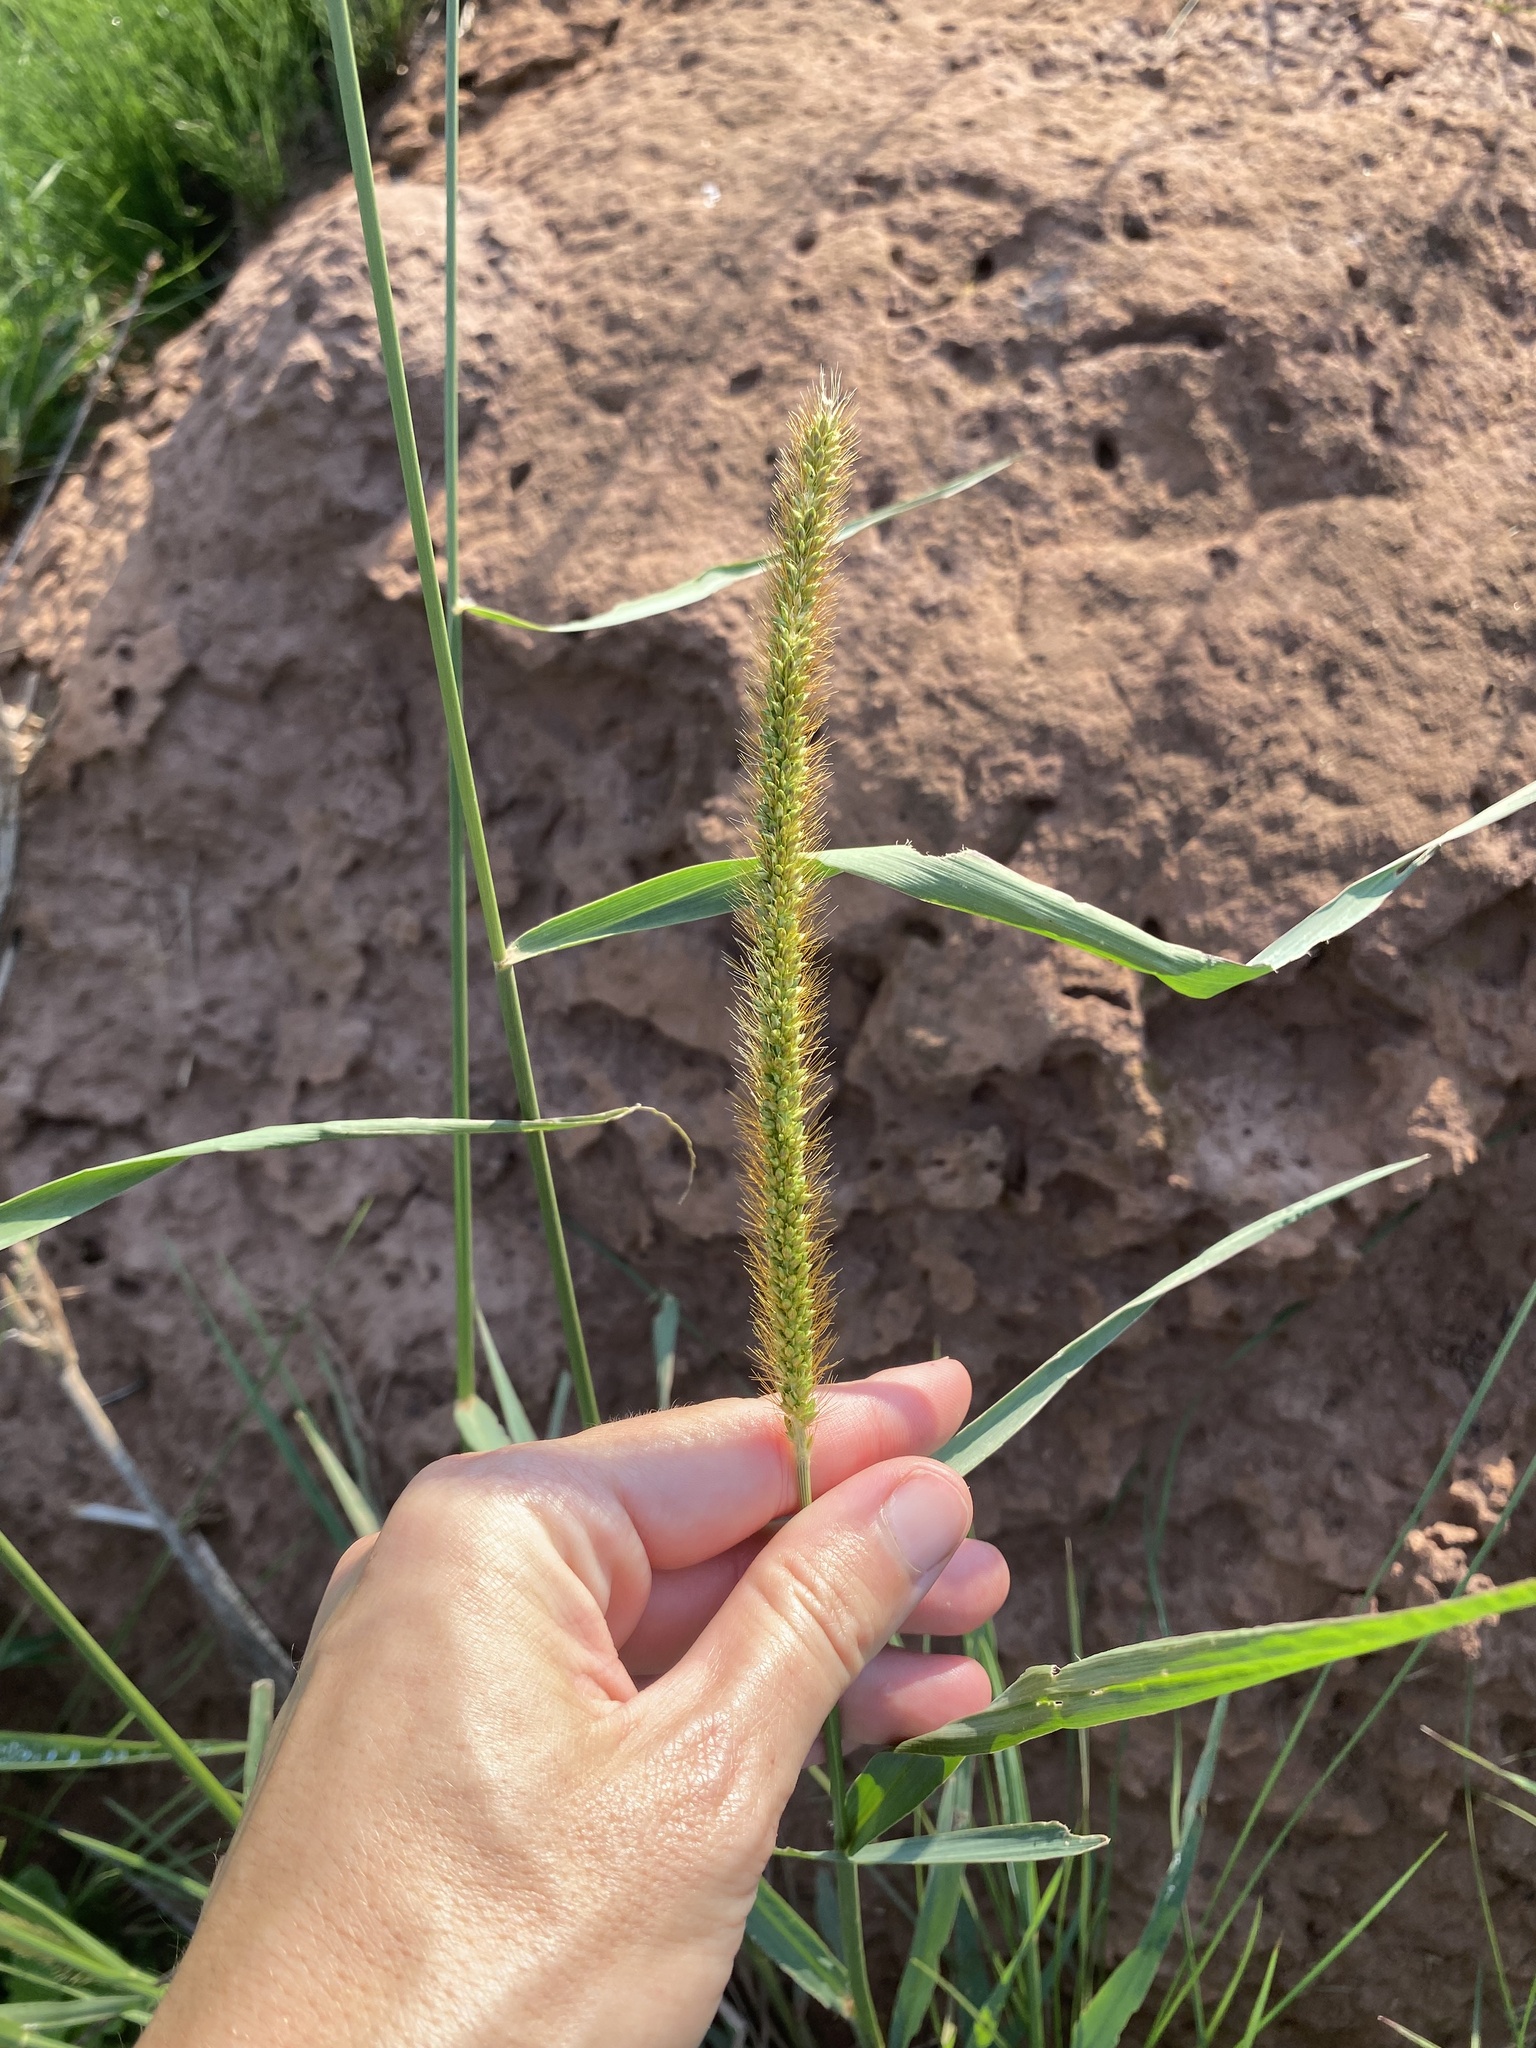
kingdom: Plantae
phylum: Tracheophyta
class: Liliopsida
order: Poales
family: Poaceae
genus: Setaria
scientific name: Setaria sphacelata
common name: African bristlegrass
